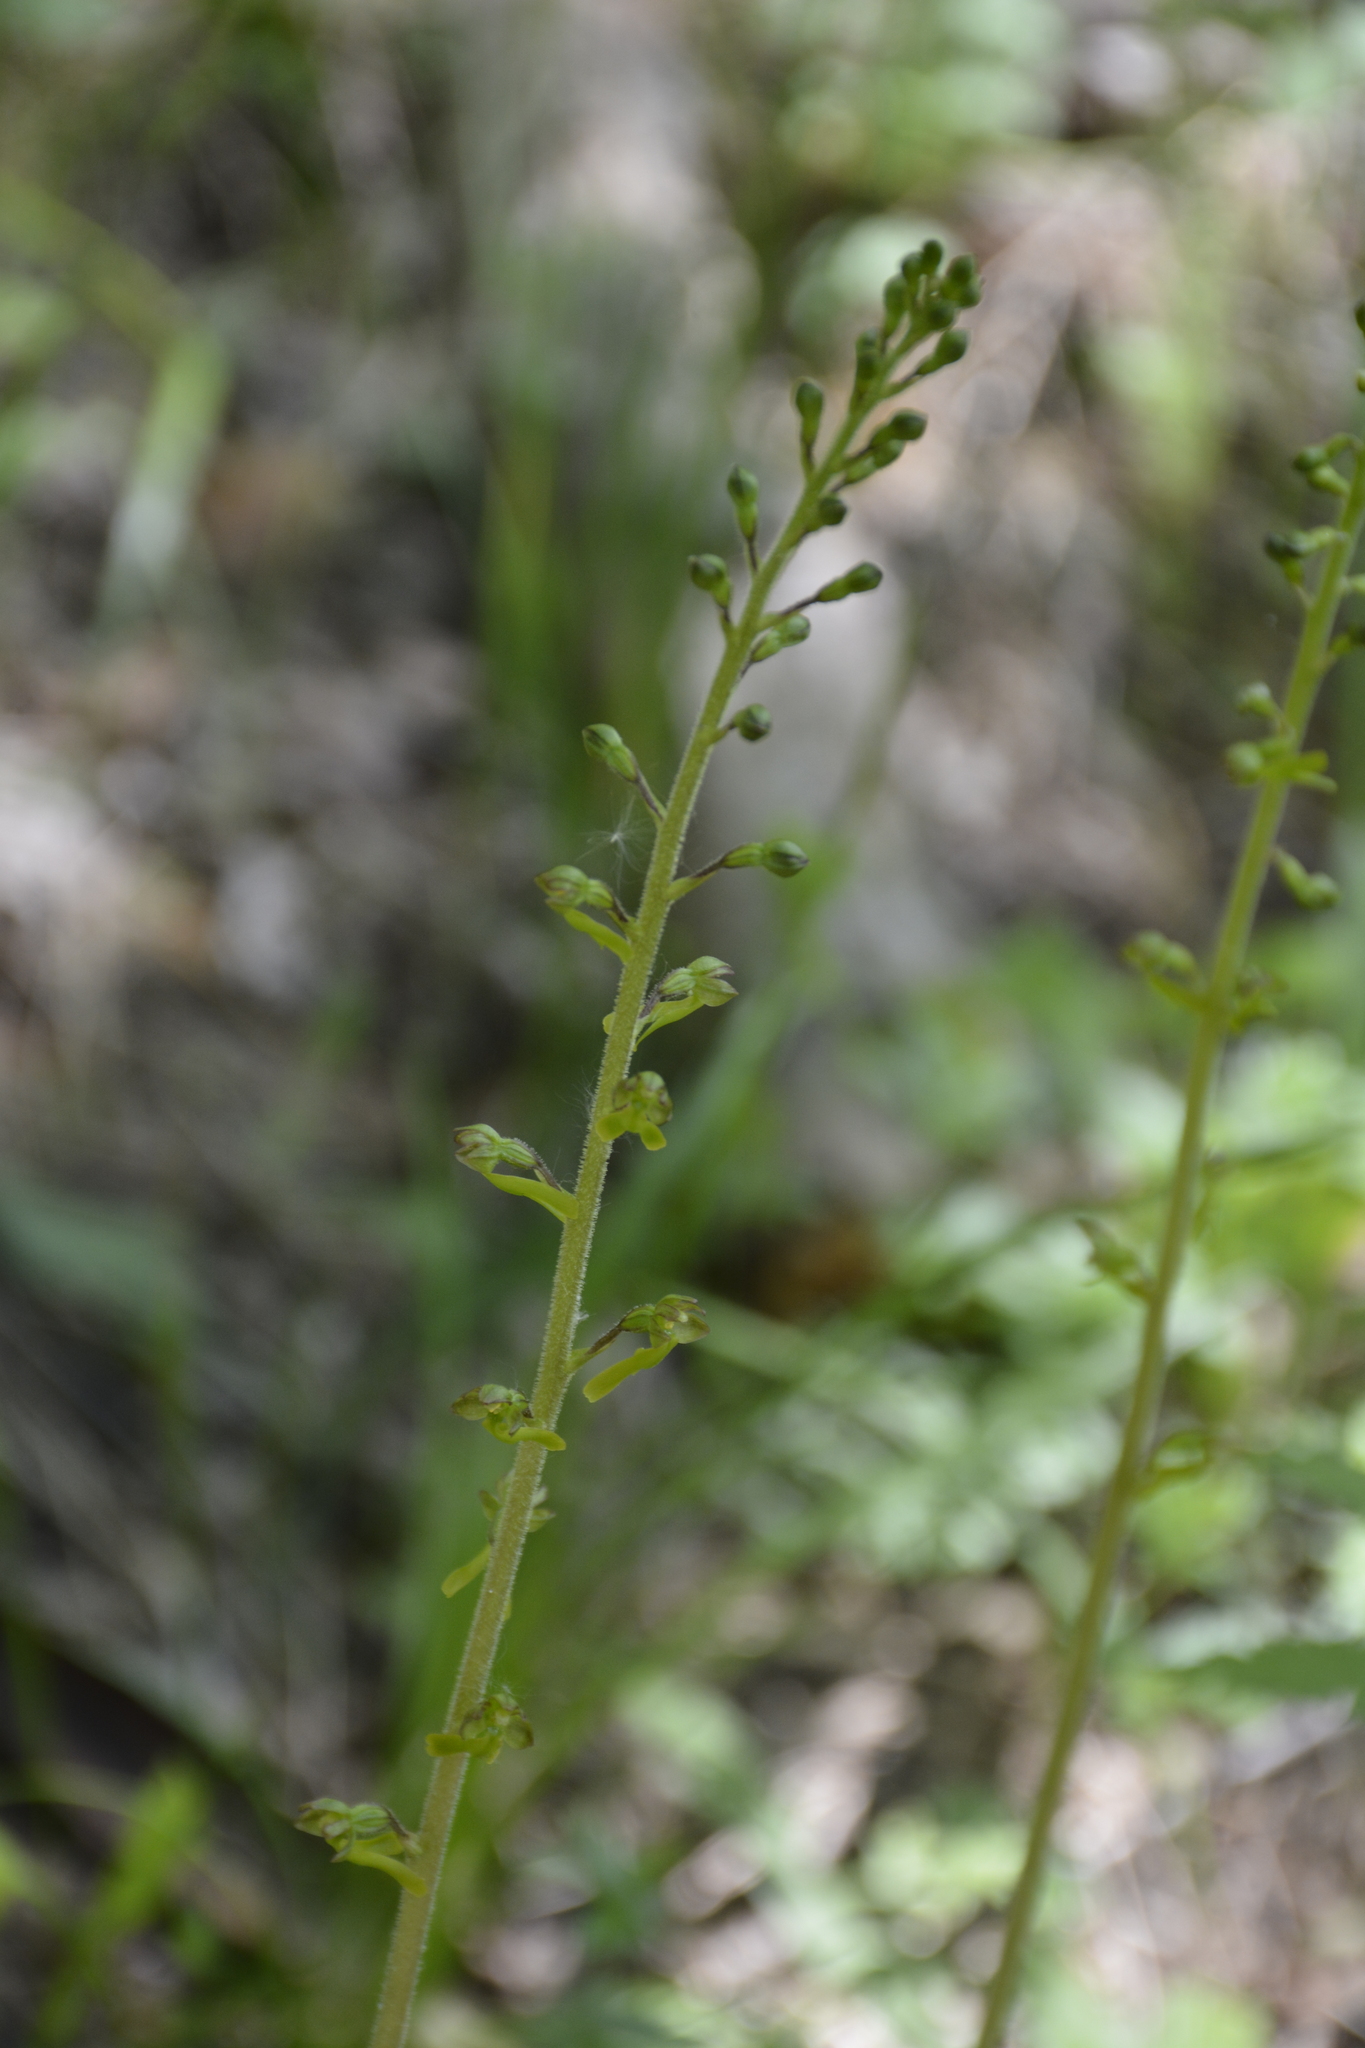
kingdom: Plantae
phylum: Tracheophyta
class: Liliopsida
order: Asparagales
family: Orchidaceae
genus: Neottia
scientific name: Neottia ovata
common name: Common twayblade
